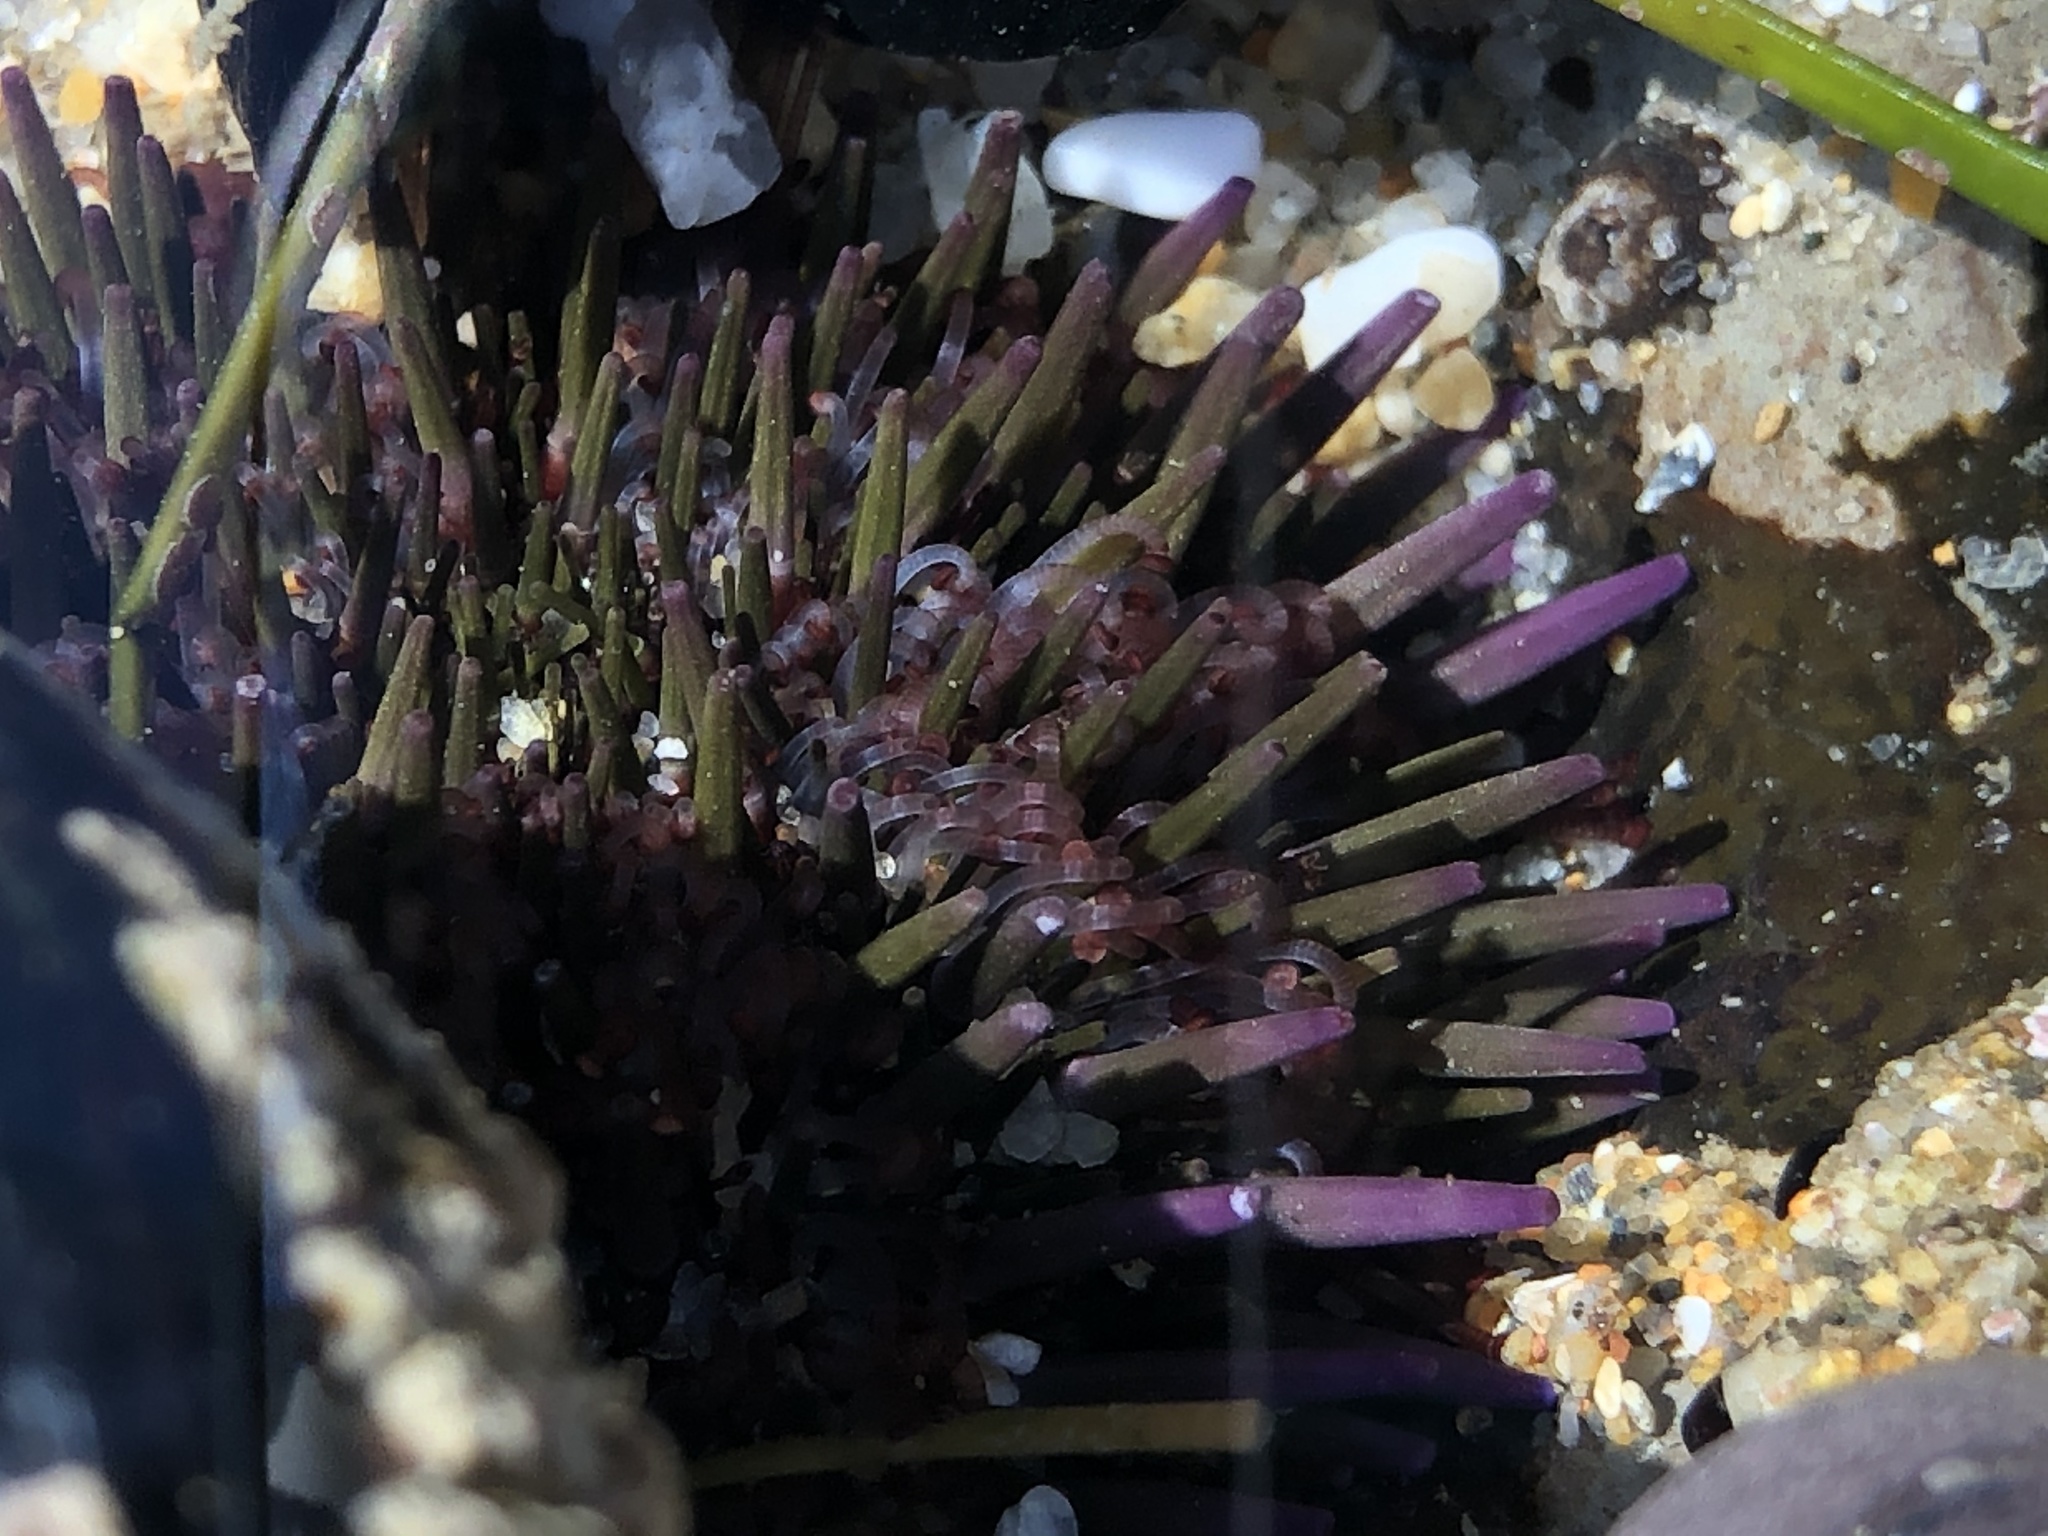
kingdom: Animalia
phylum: Echinodermata
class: Echinoidea
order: Camarodonta
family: Strongylocentrotidae
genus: Strongylocentrotus
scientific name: Strongylocentrotus purpuratus
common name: Purple sea urchin
